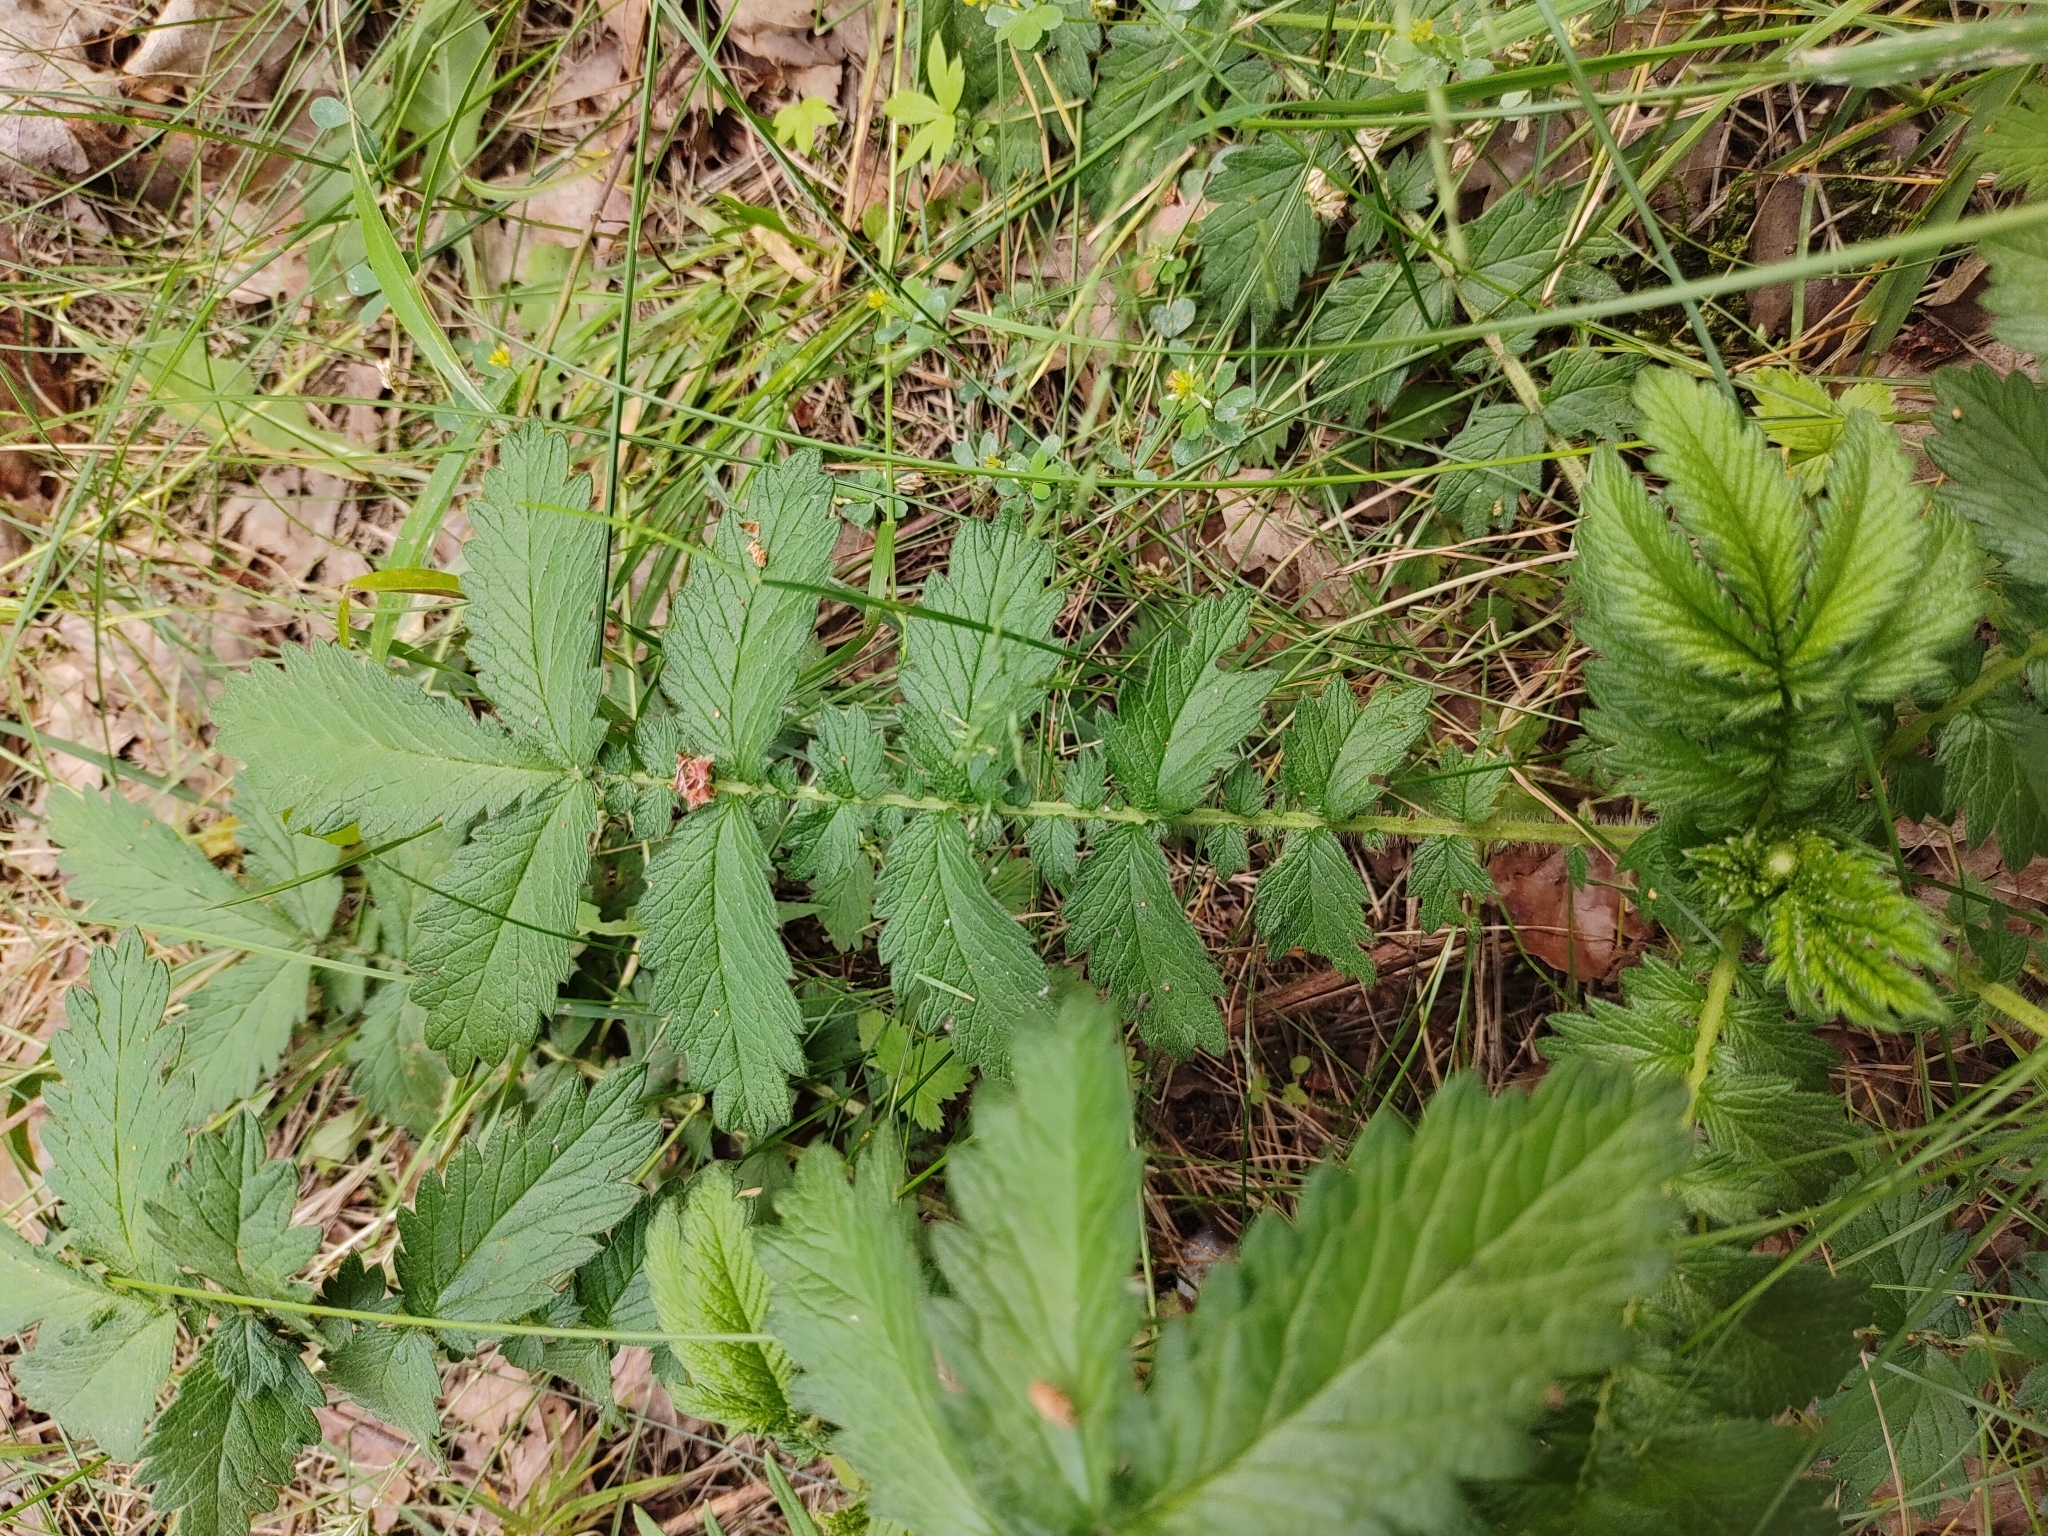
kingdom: Plantae
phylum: Tracheophyta
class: Magnoliopsida
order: Rosales
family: Rosaceae
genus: Agrimonia
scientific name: Agrimonia eupatoria
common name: Agrimony
